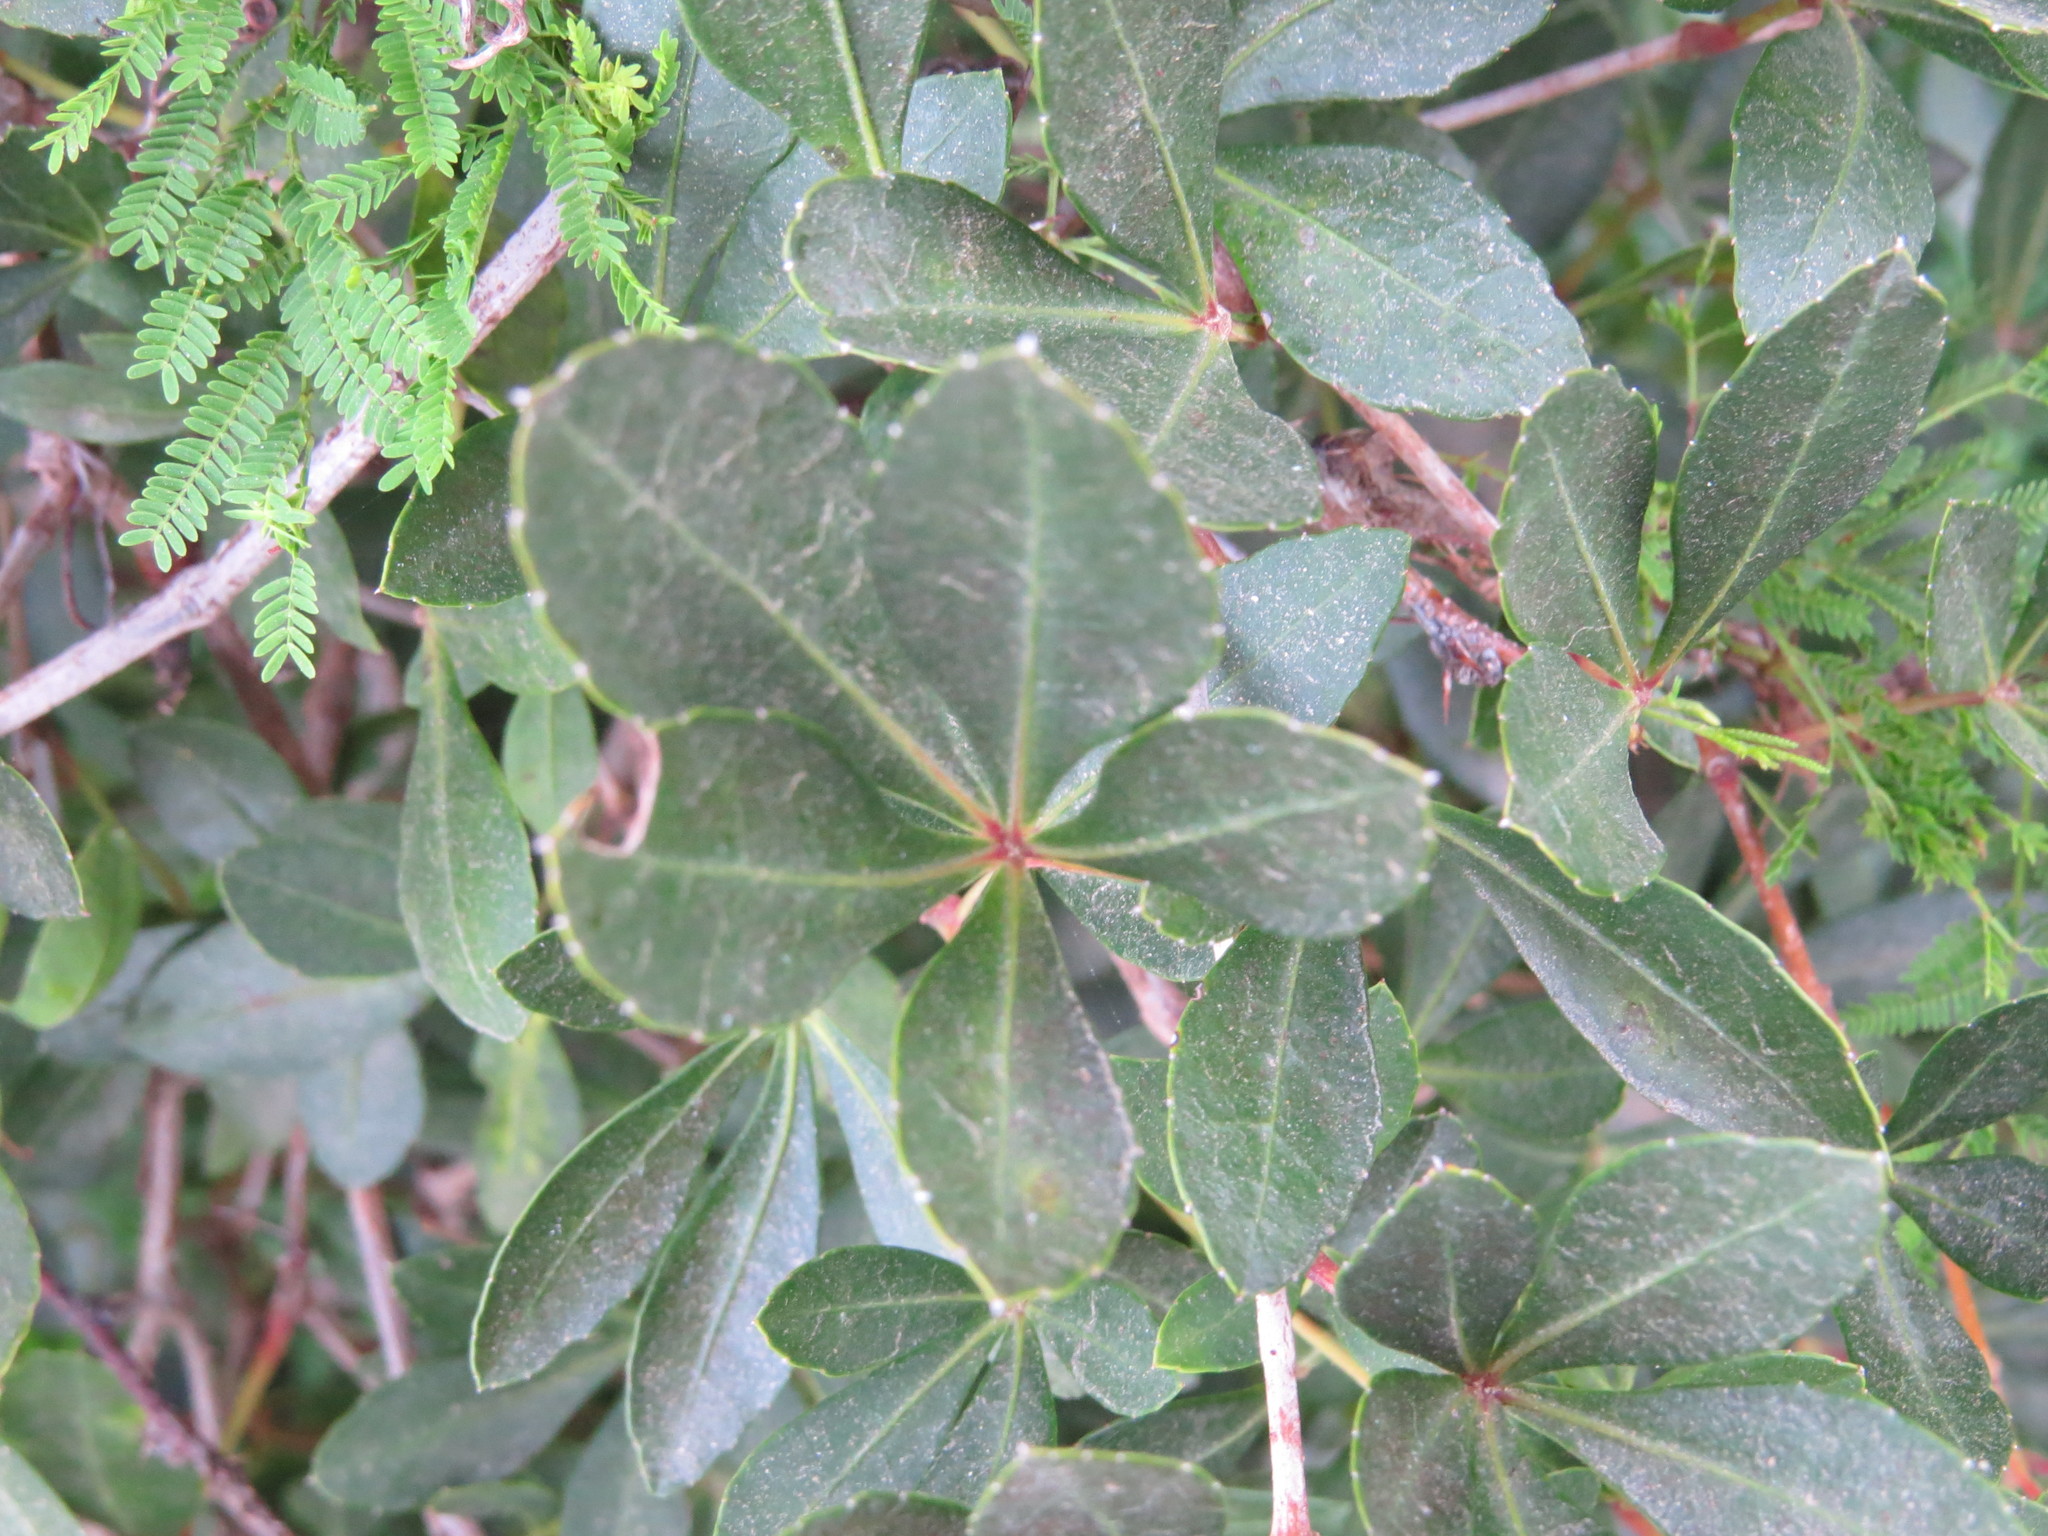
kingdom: Plantae
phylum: Tracheophyta
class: Magnoliopsida
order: Vitales
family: Vitaceae
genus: Clematicissus
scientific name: Clematicissus striata
